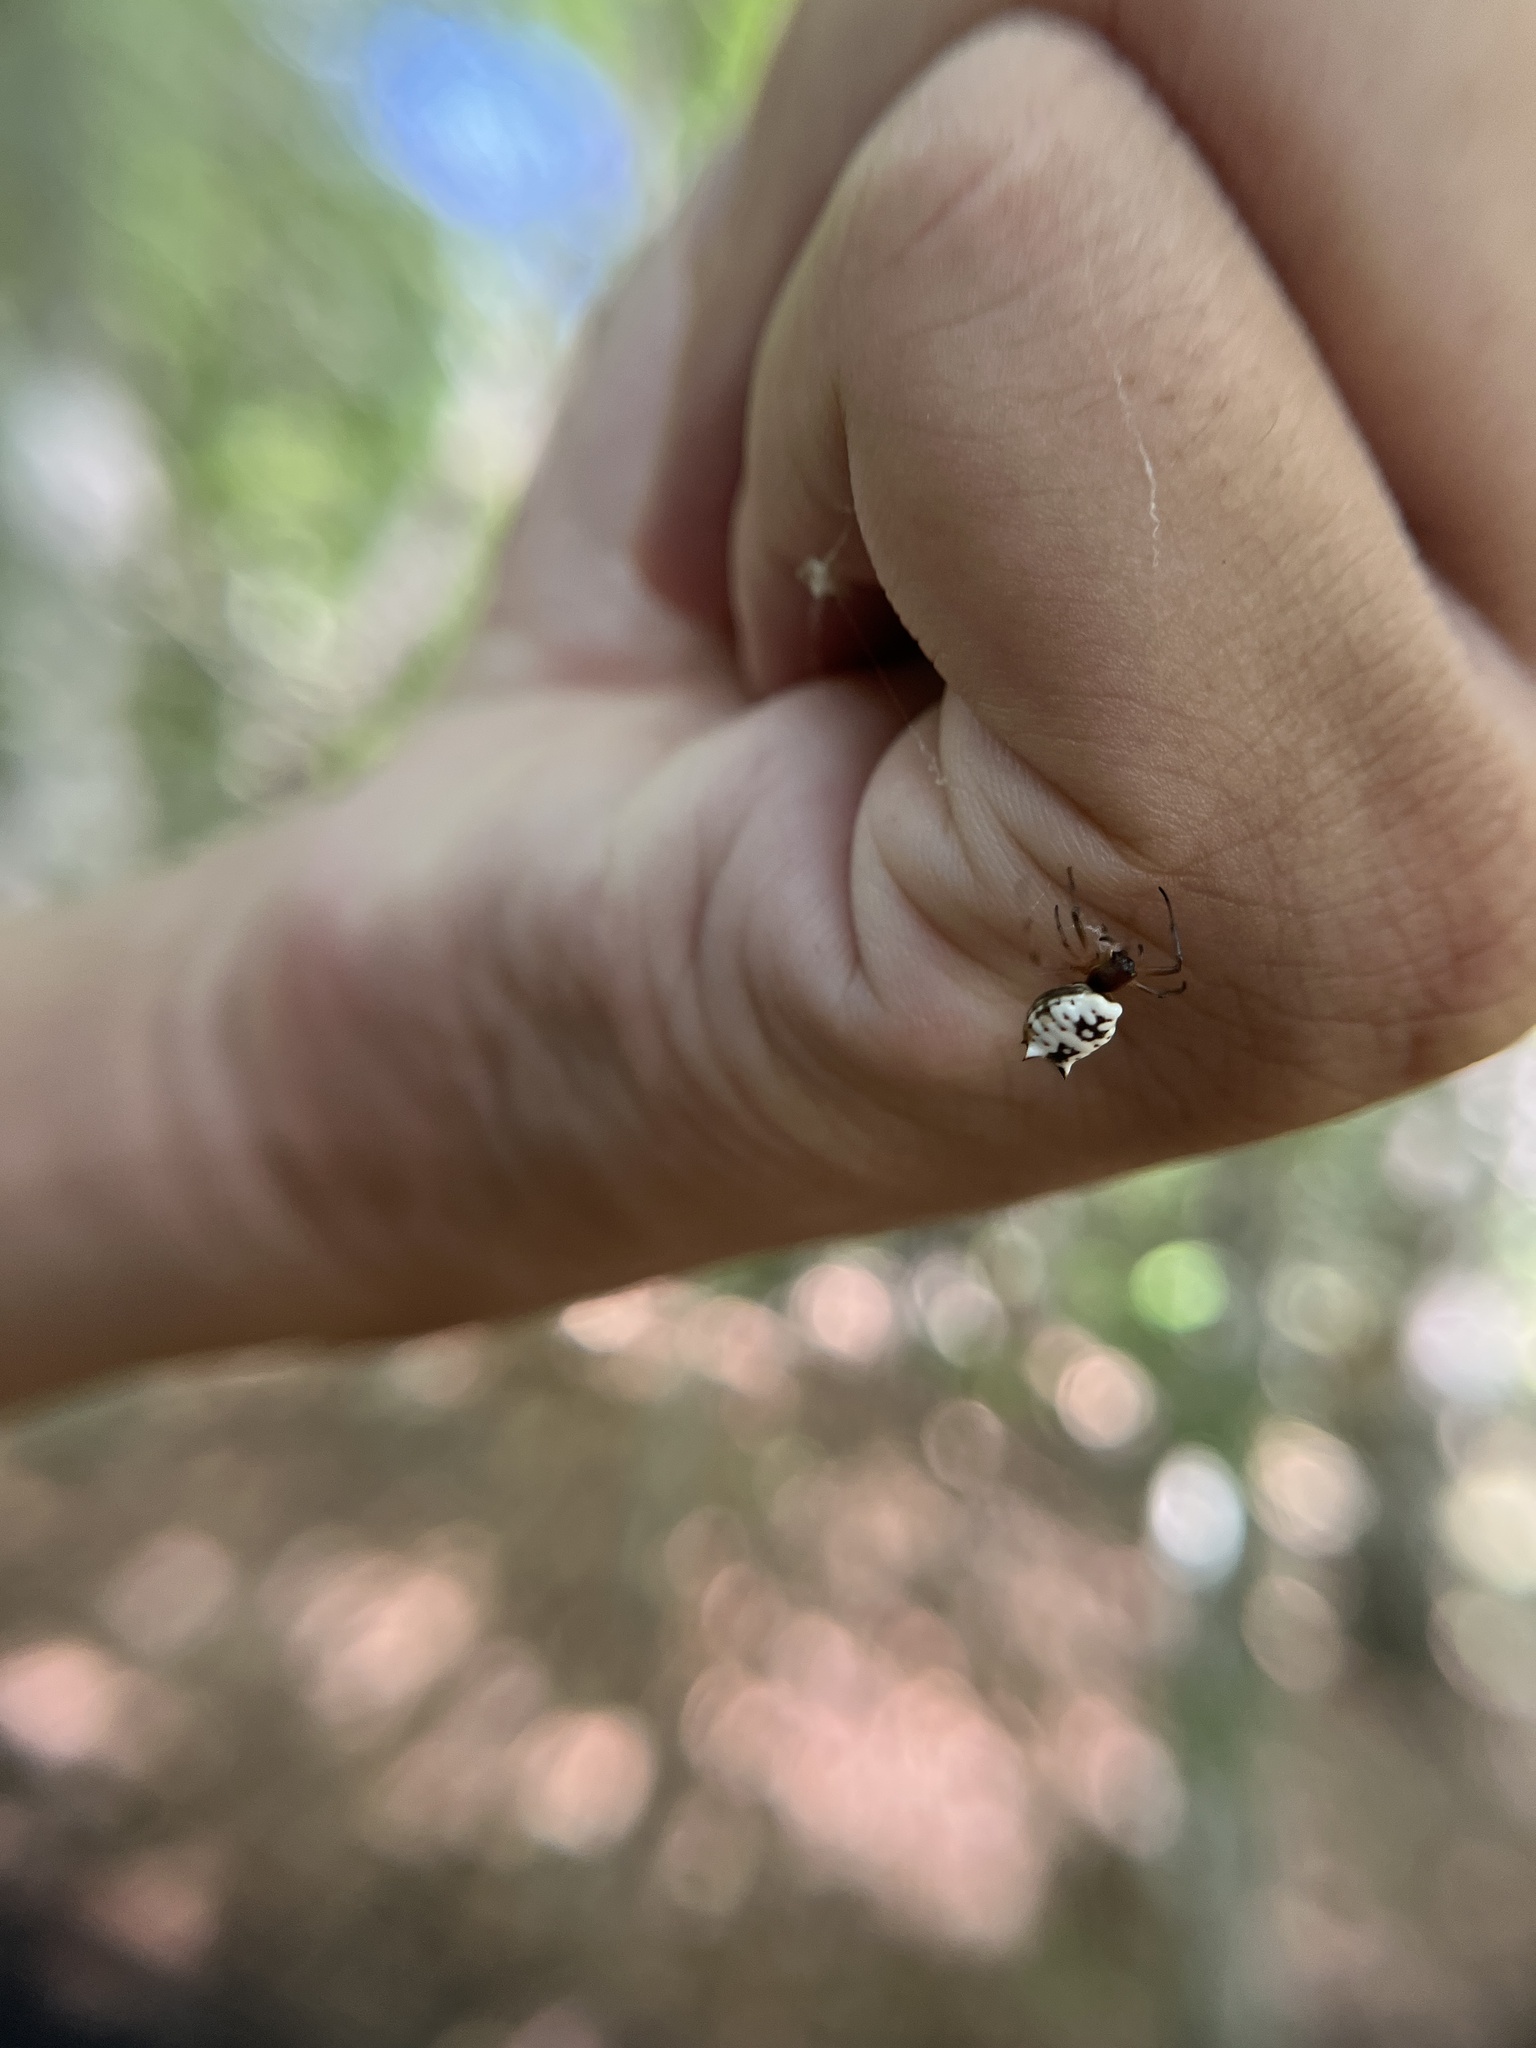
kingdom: Animalia
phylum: Arthropoda
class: Arachnida
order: Araneae
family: Araneidae
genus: Micrathena
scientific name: Micrathena mitrata
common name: Orb weavers
